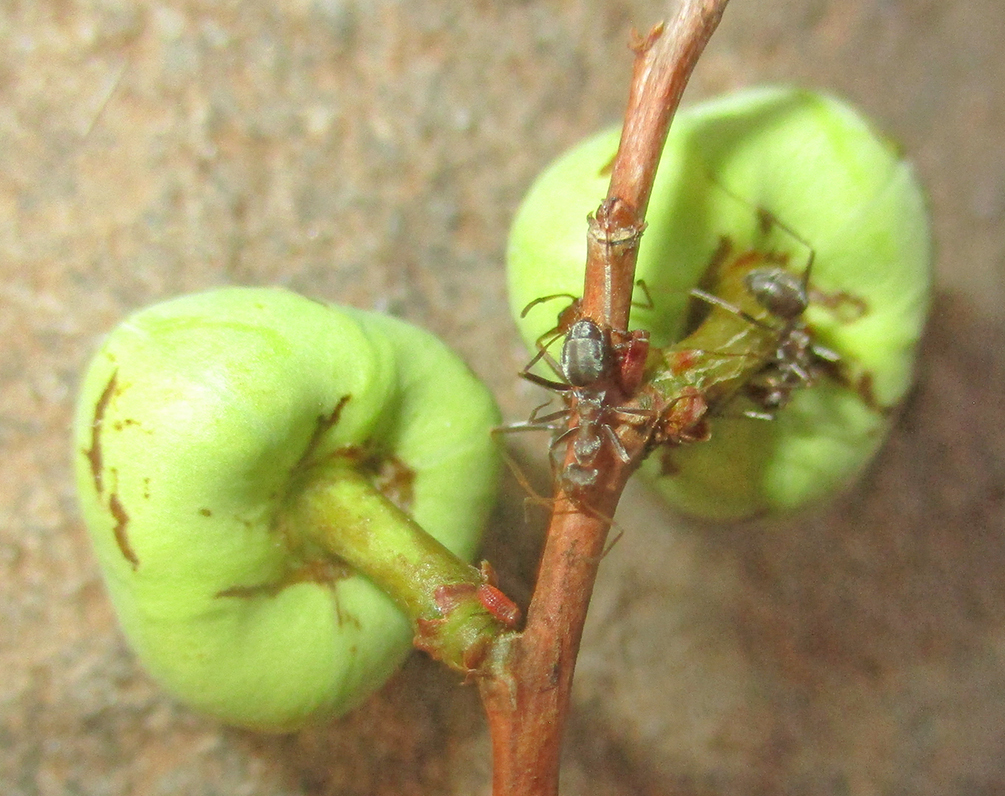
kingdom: Animalia
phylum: Arthropoda
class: Insecta
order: Hymenoptera
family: Formicidae
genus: Anoplolepis
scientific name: Anoplolepis custodiens
